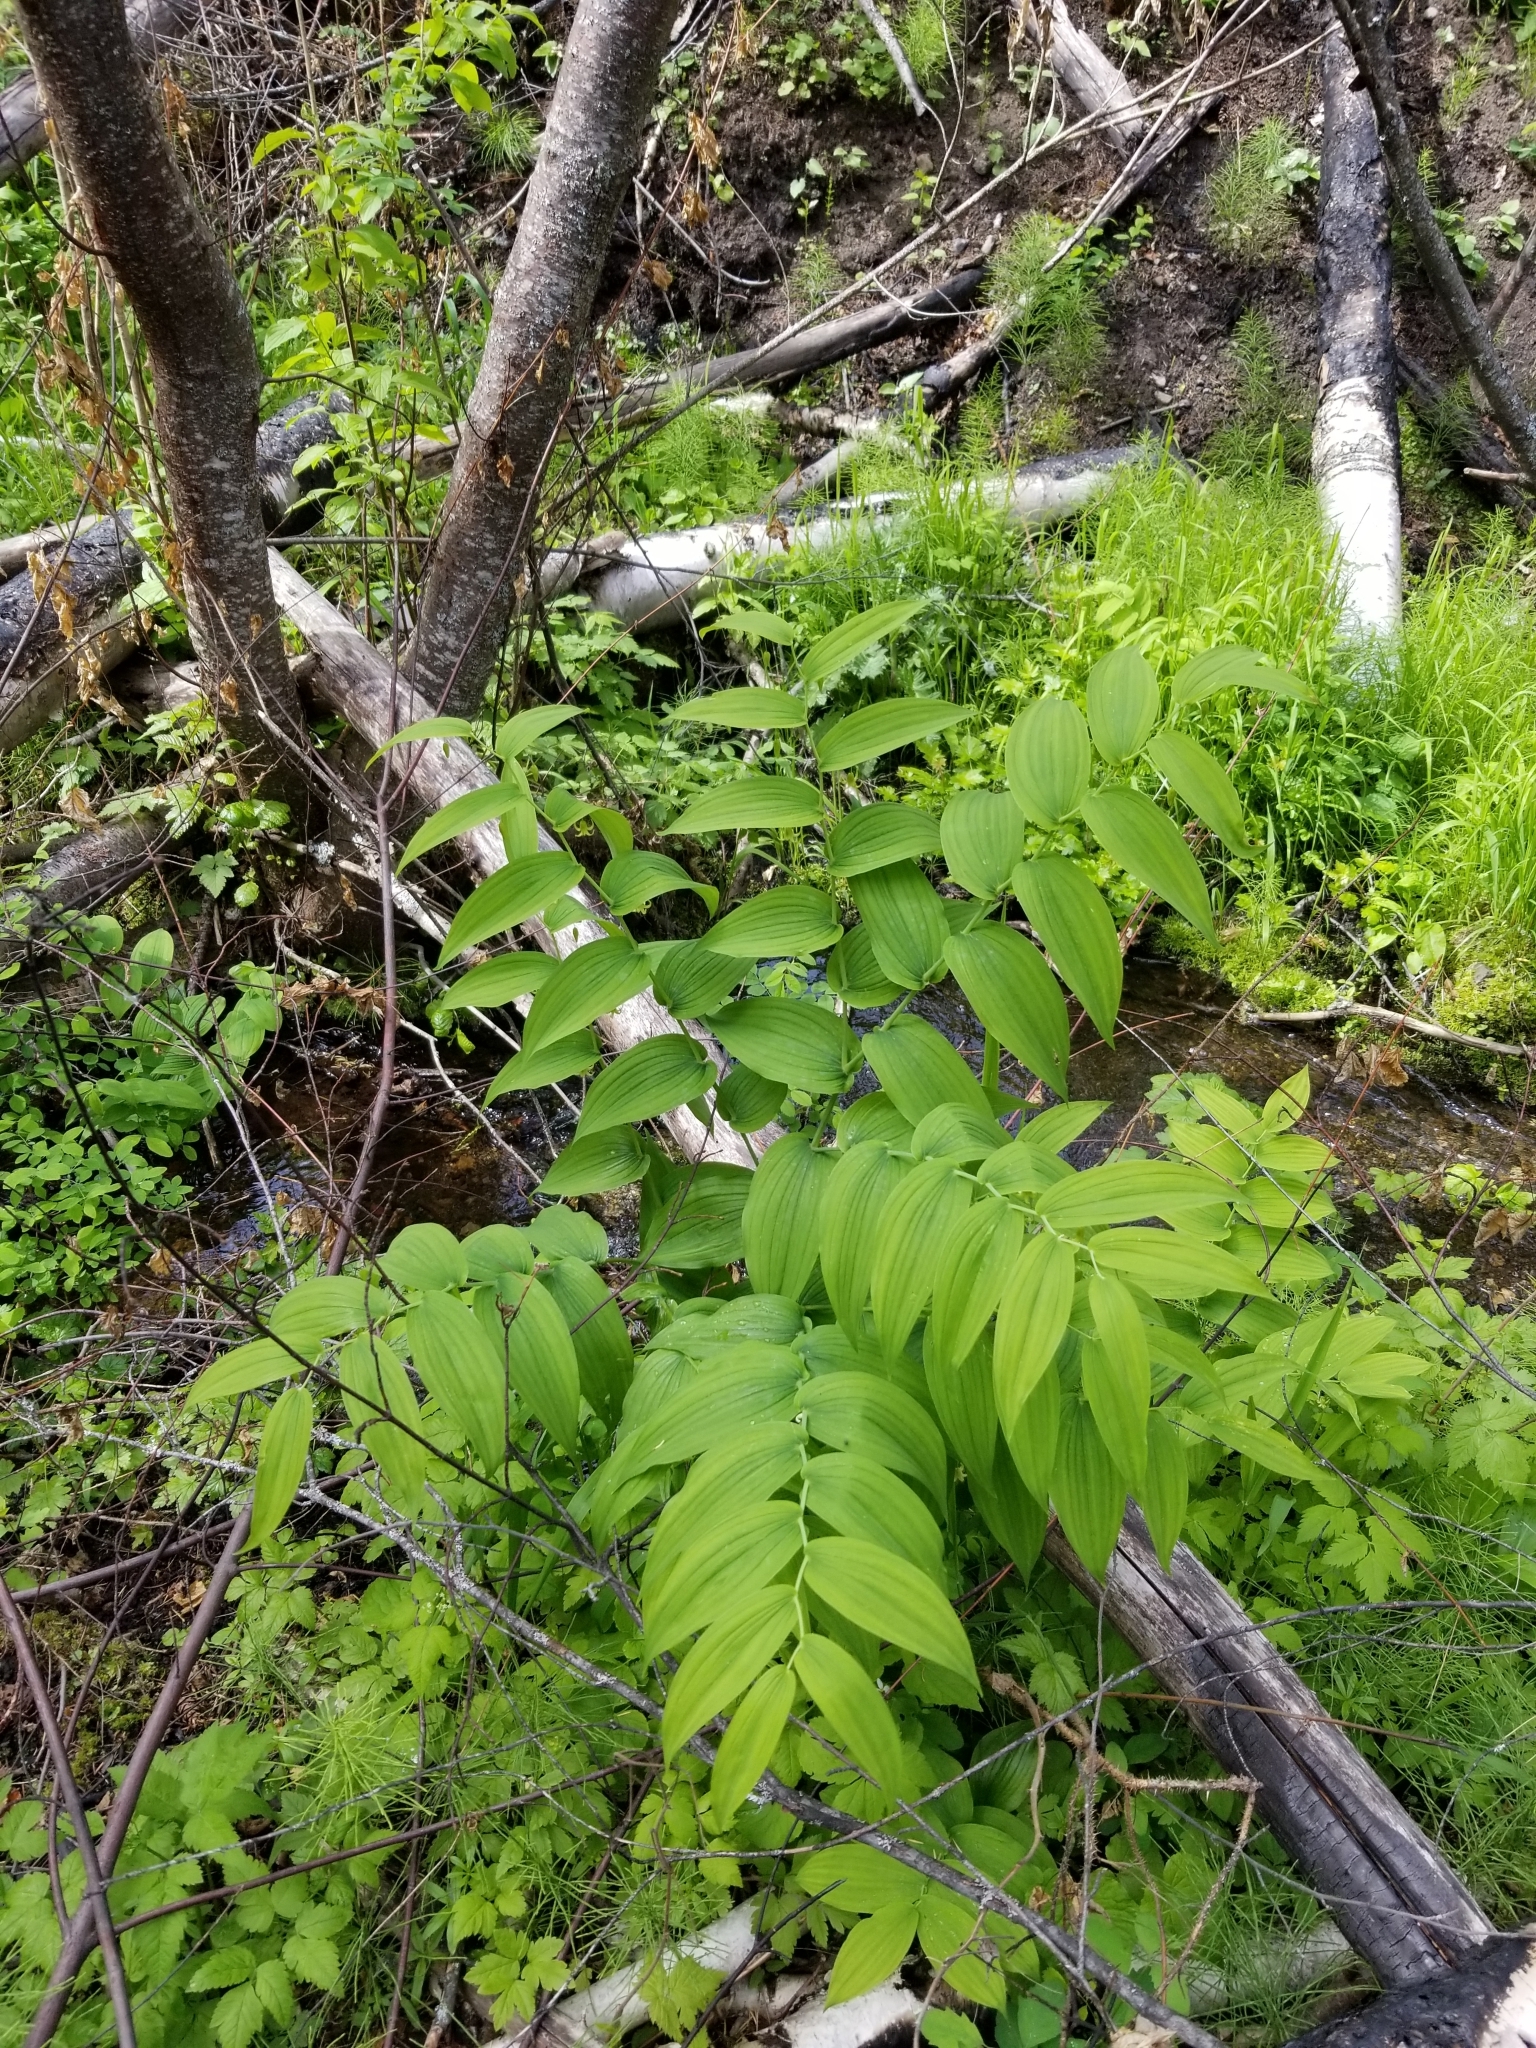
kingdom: Plantae
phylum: Tracheophyta
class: Liliopsida
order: Liliales
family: Liliaceae
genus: Streptopus
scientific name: Streptopus amplexifolius
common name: Clasp twisted stalk
